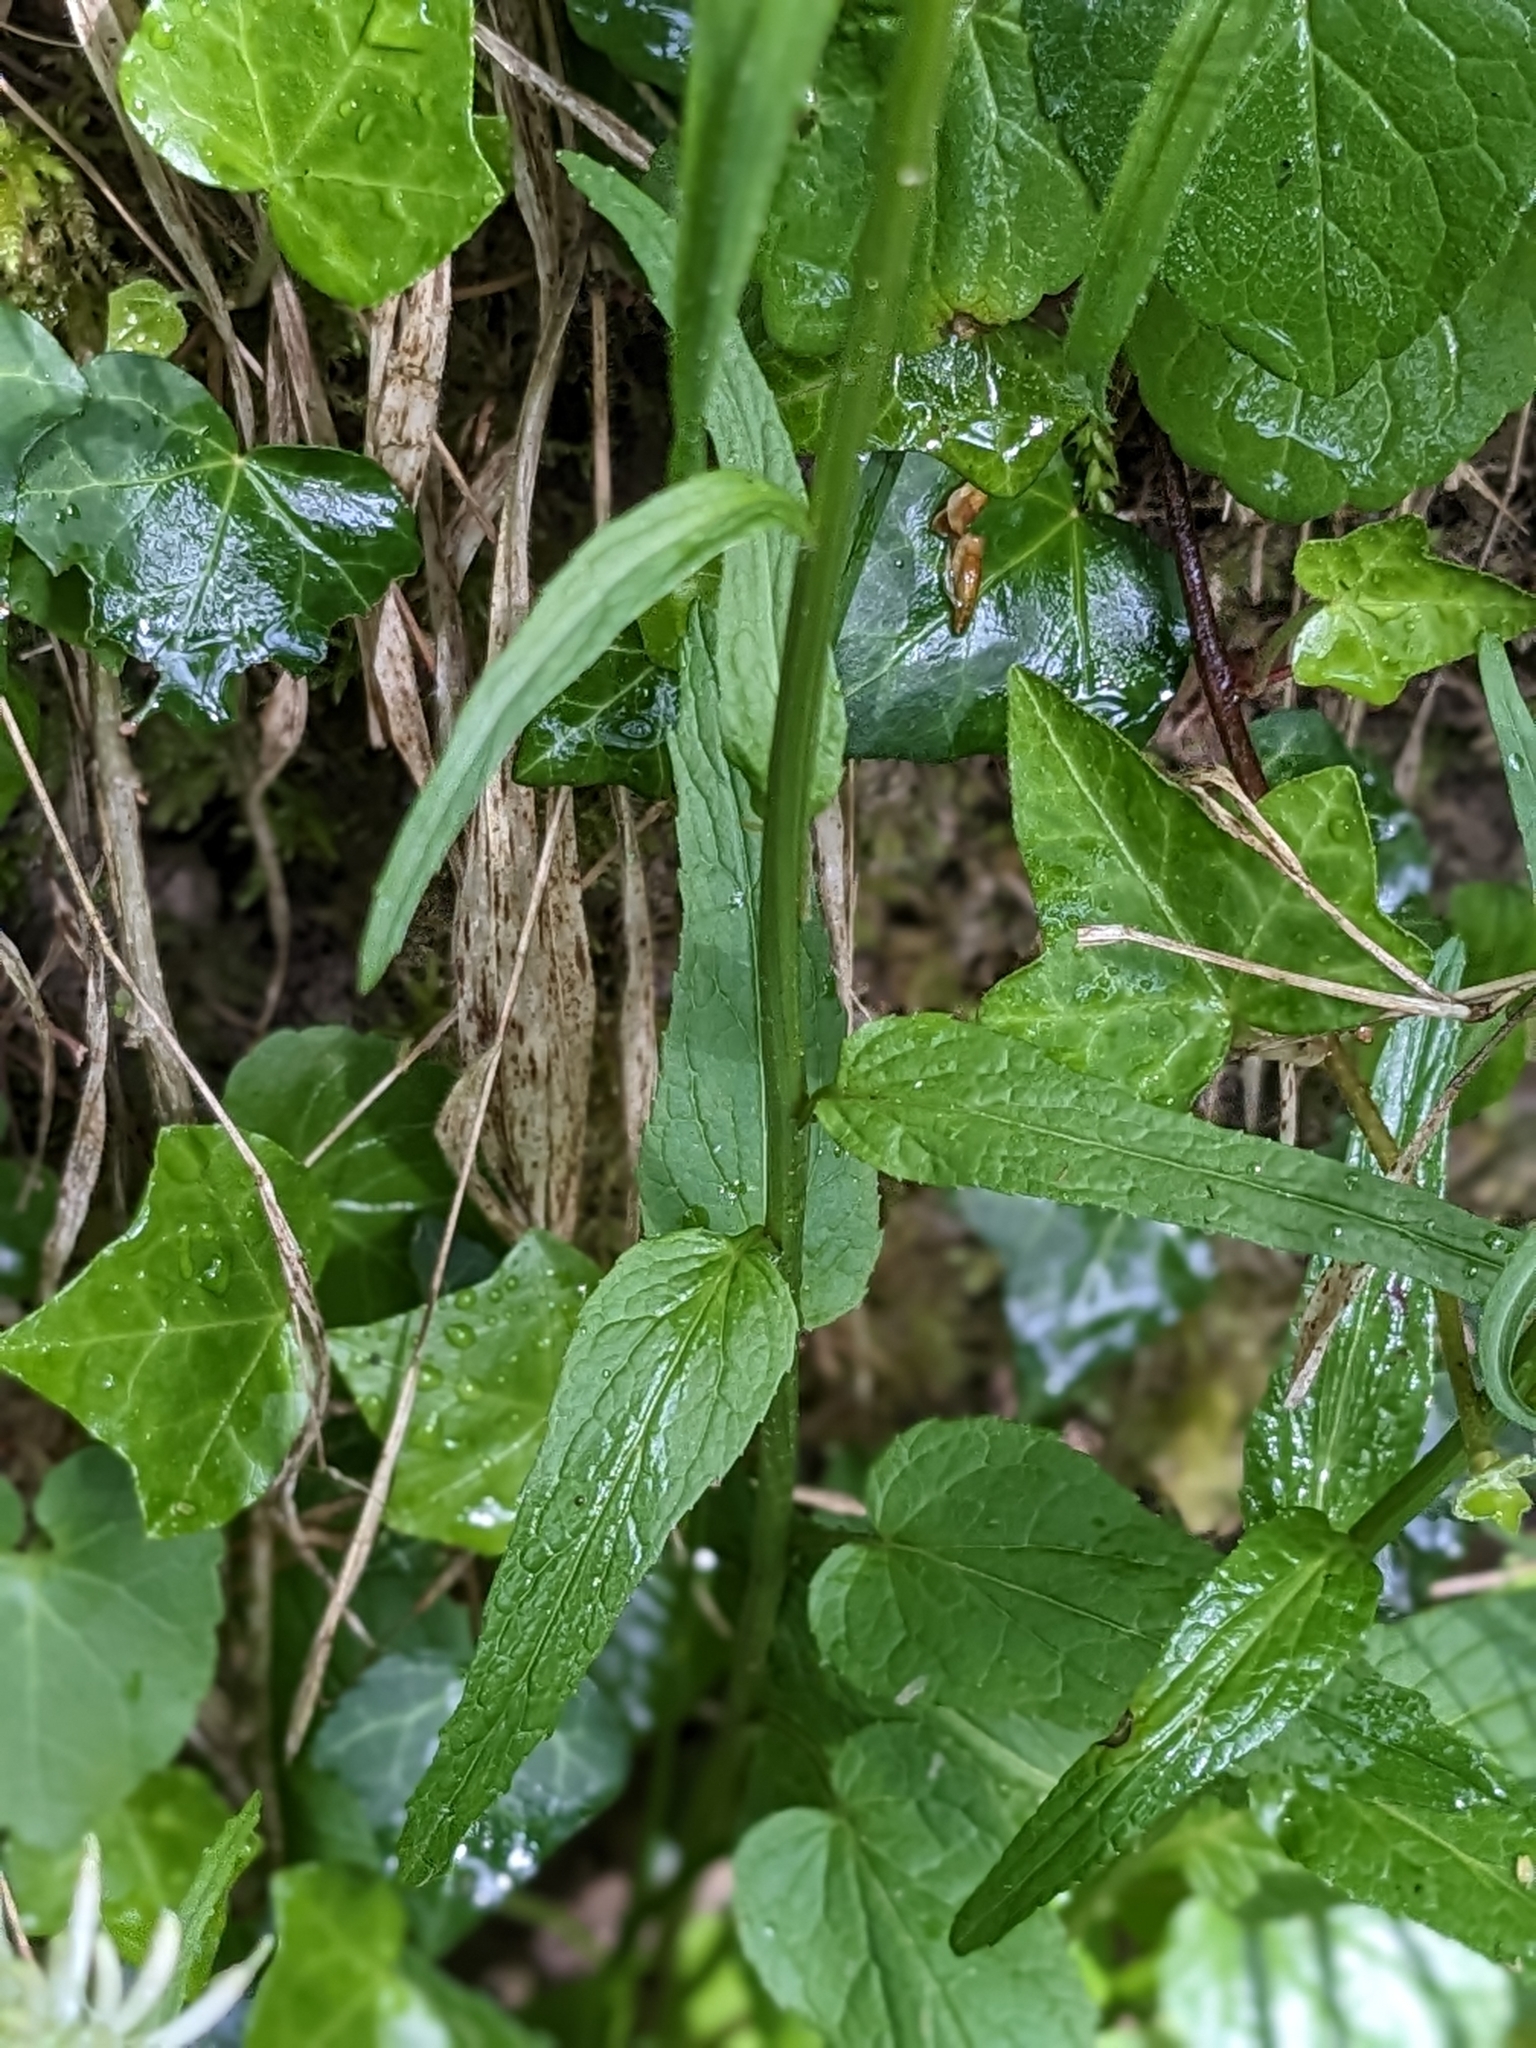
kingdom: Plantae
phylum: Tracheophyta
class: Magnoliopsida
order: Asterales
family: Campanulaceae
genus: Phyteuma
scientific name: Phyteuma spicatum
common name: Spiked rampion
